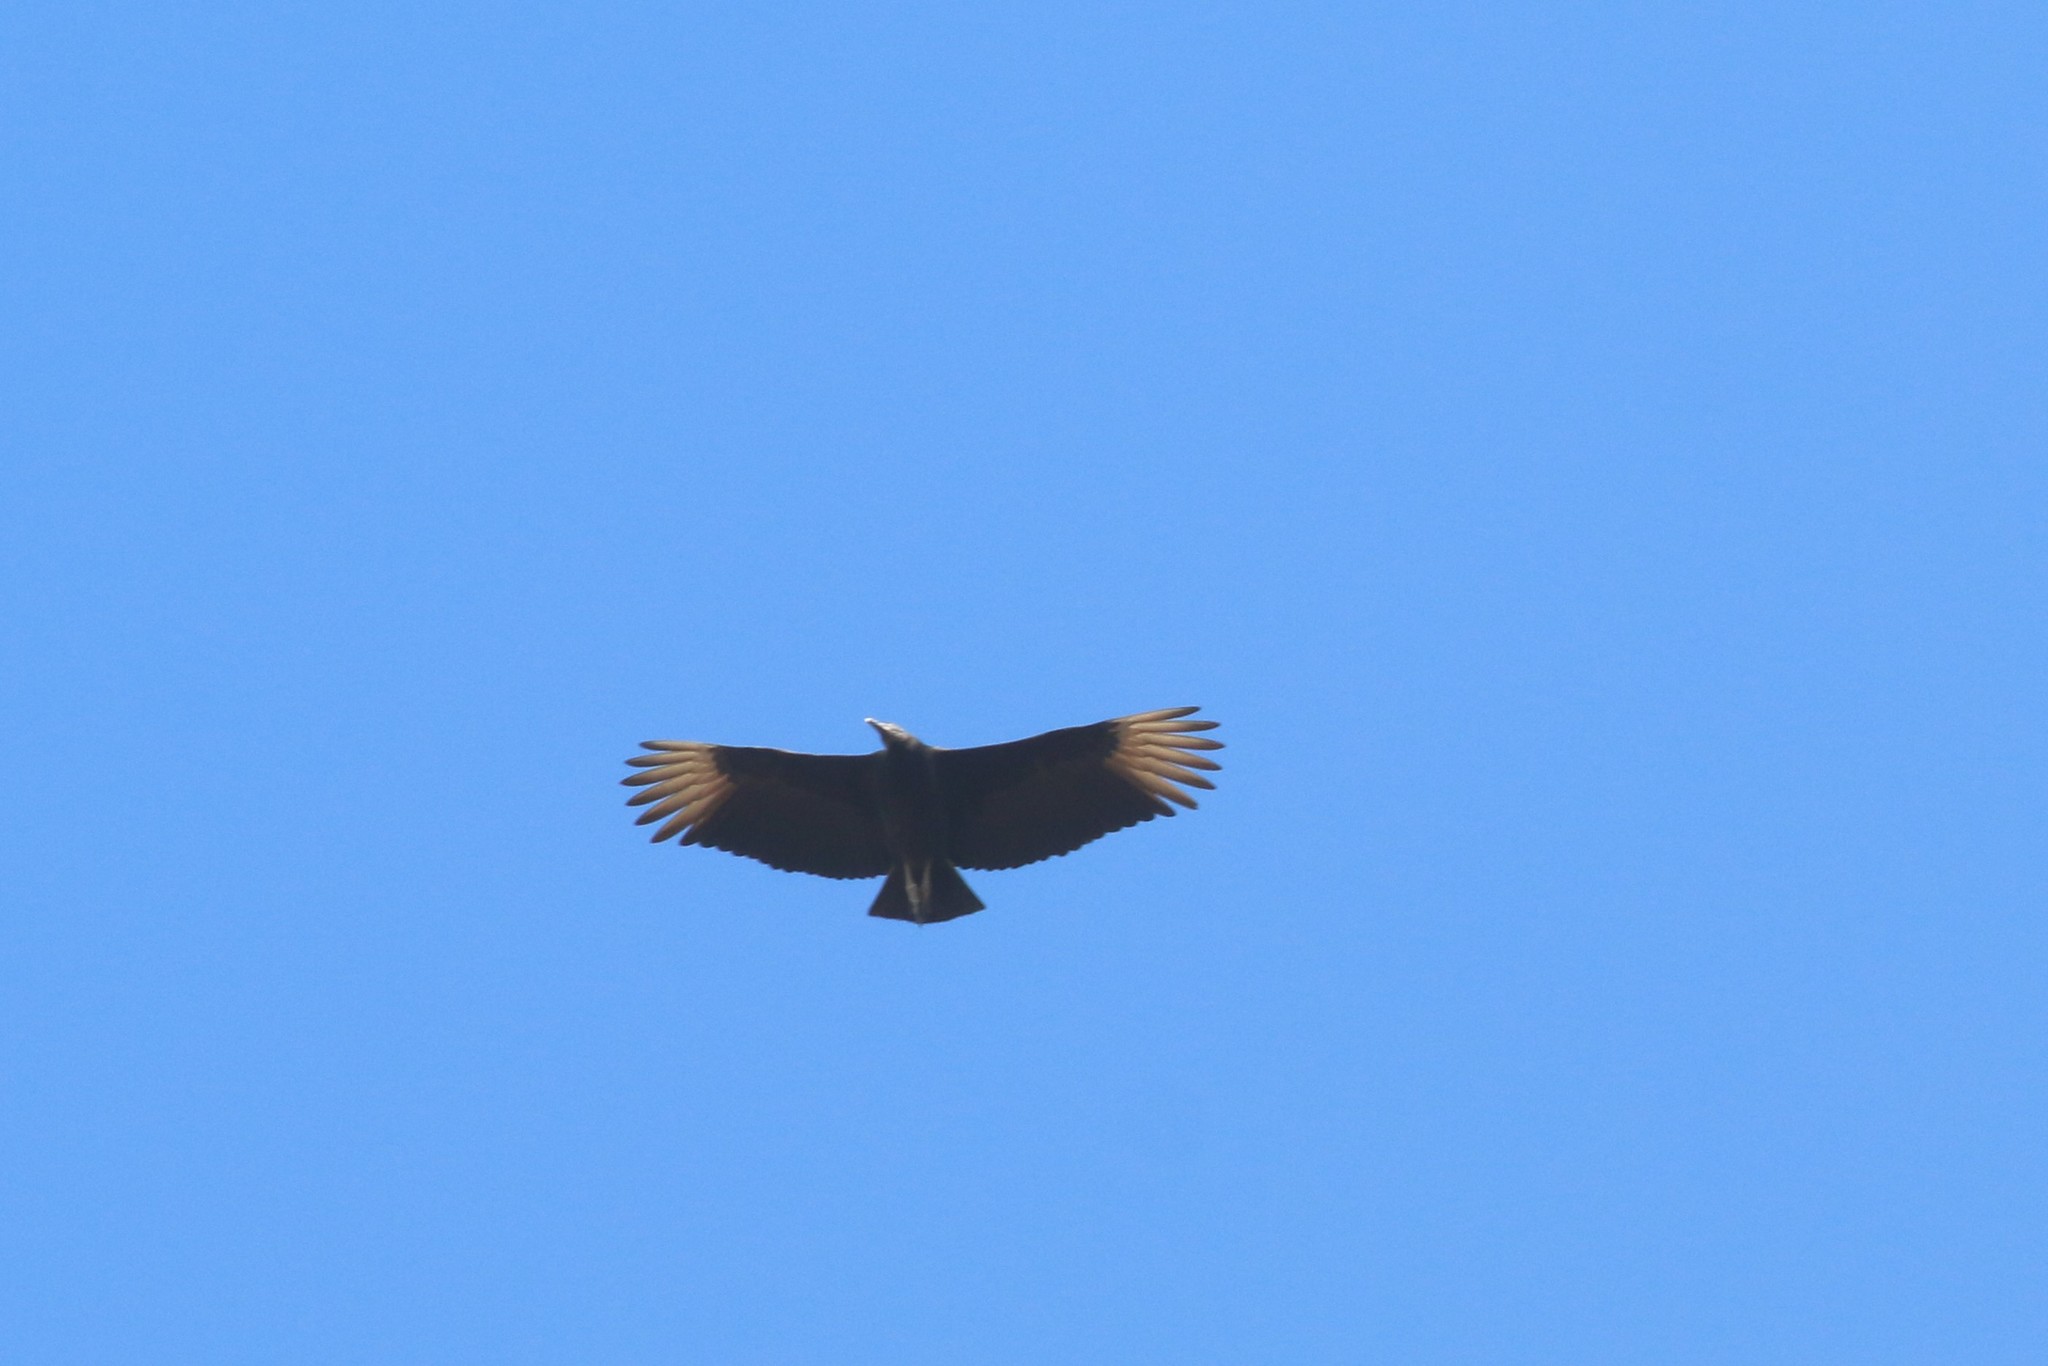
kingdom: Animalia
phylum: Chordata
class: Aves
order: Accipitriformes
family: Cathartidae
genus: Coragyps
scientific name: Coragyps atratus
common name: Black vulture
